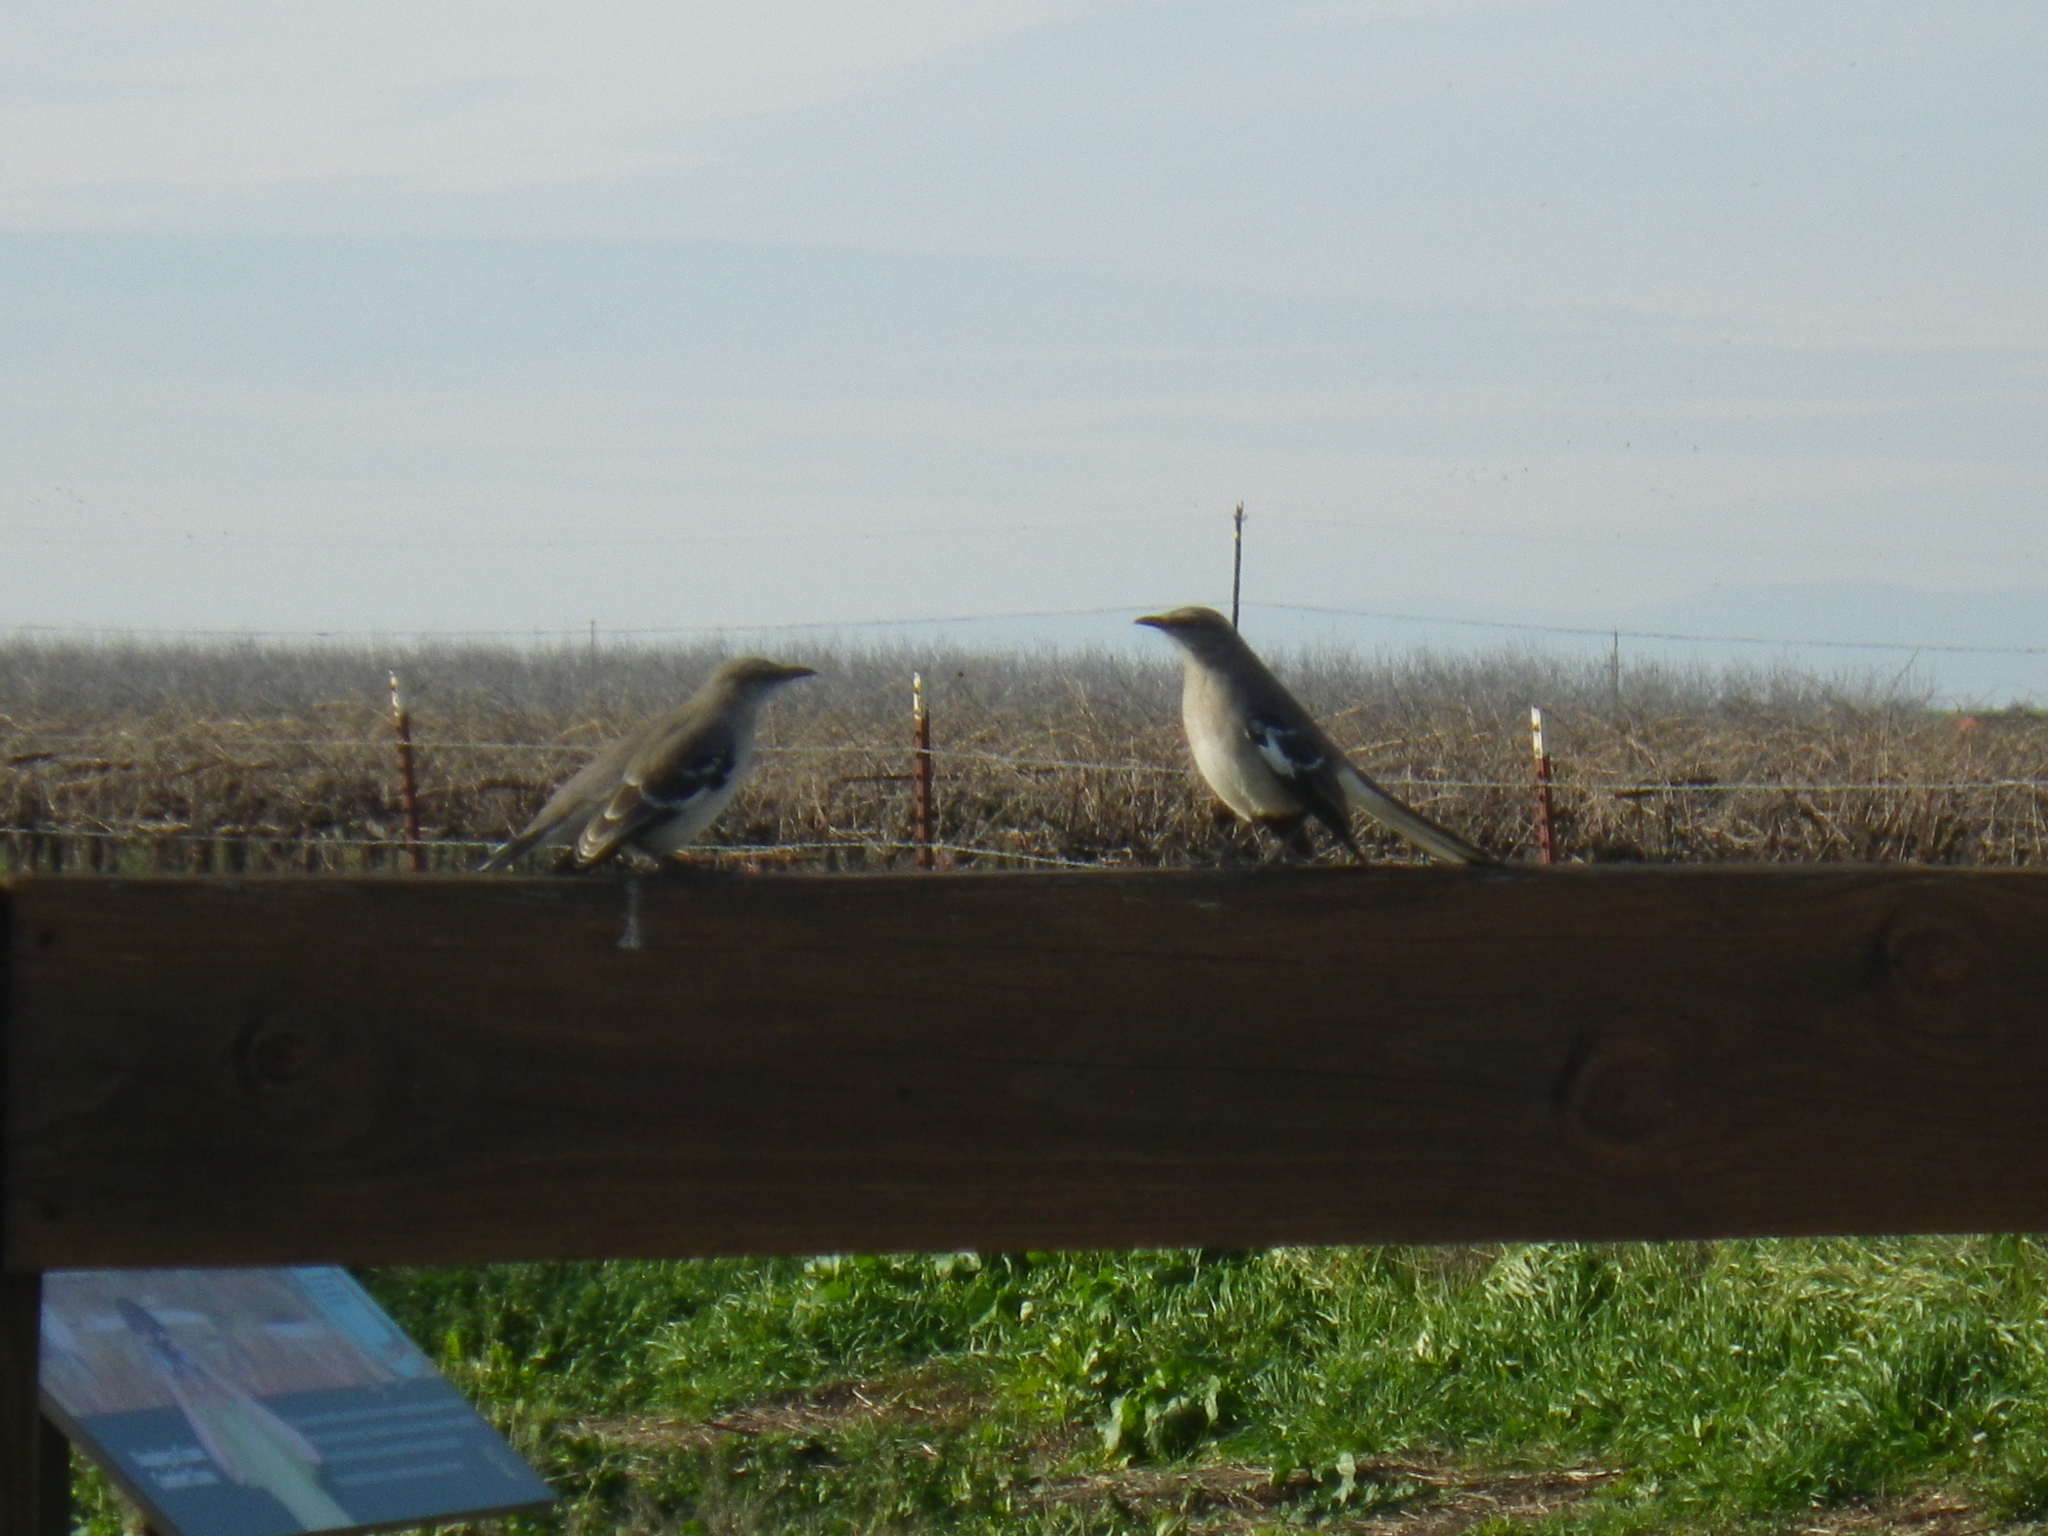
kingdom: Animalia
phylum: Chordata
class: Aves
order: Passeriformes
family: Mimidae
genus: Mimus
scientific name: Mimus polyglottos
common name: Northern mockingbird
